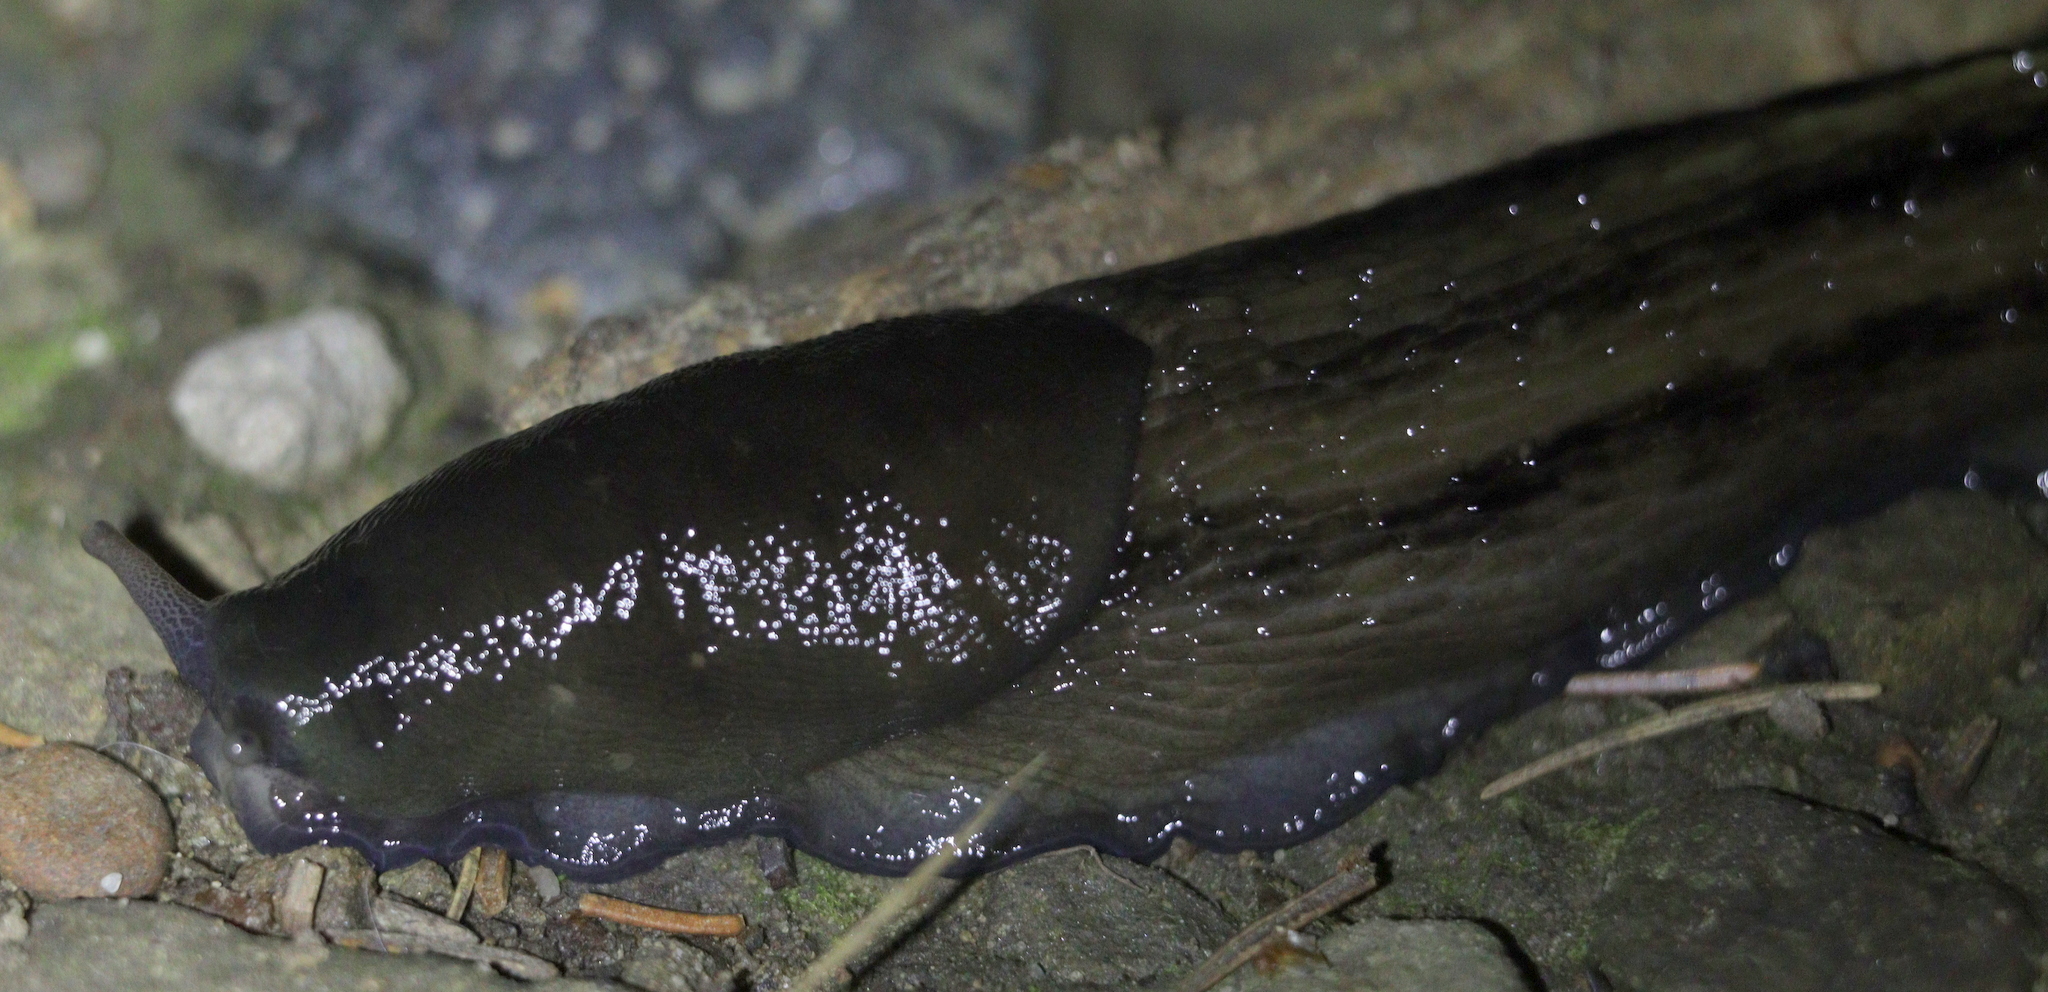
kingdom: Animalia
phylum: Mollusca
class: Gastropoda
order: Stylommatophora
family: Limacidae
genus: Limax
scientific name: Limax cinereoniger
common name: Ash-black slug
